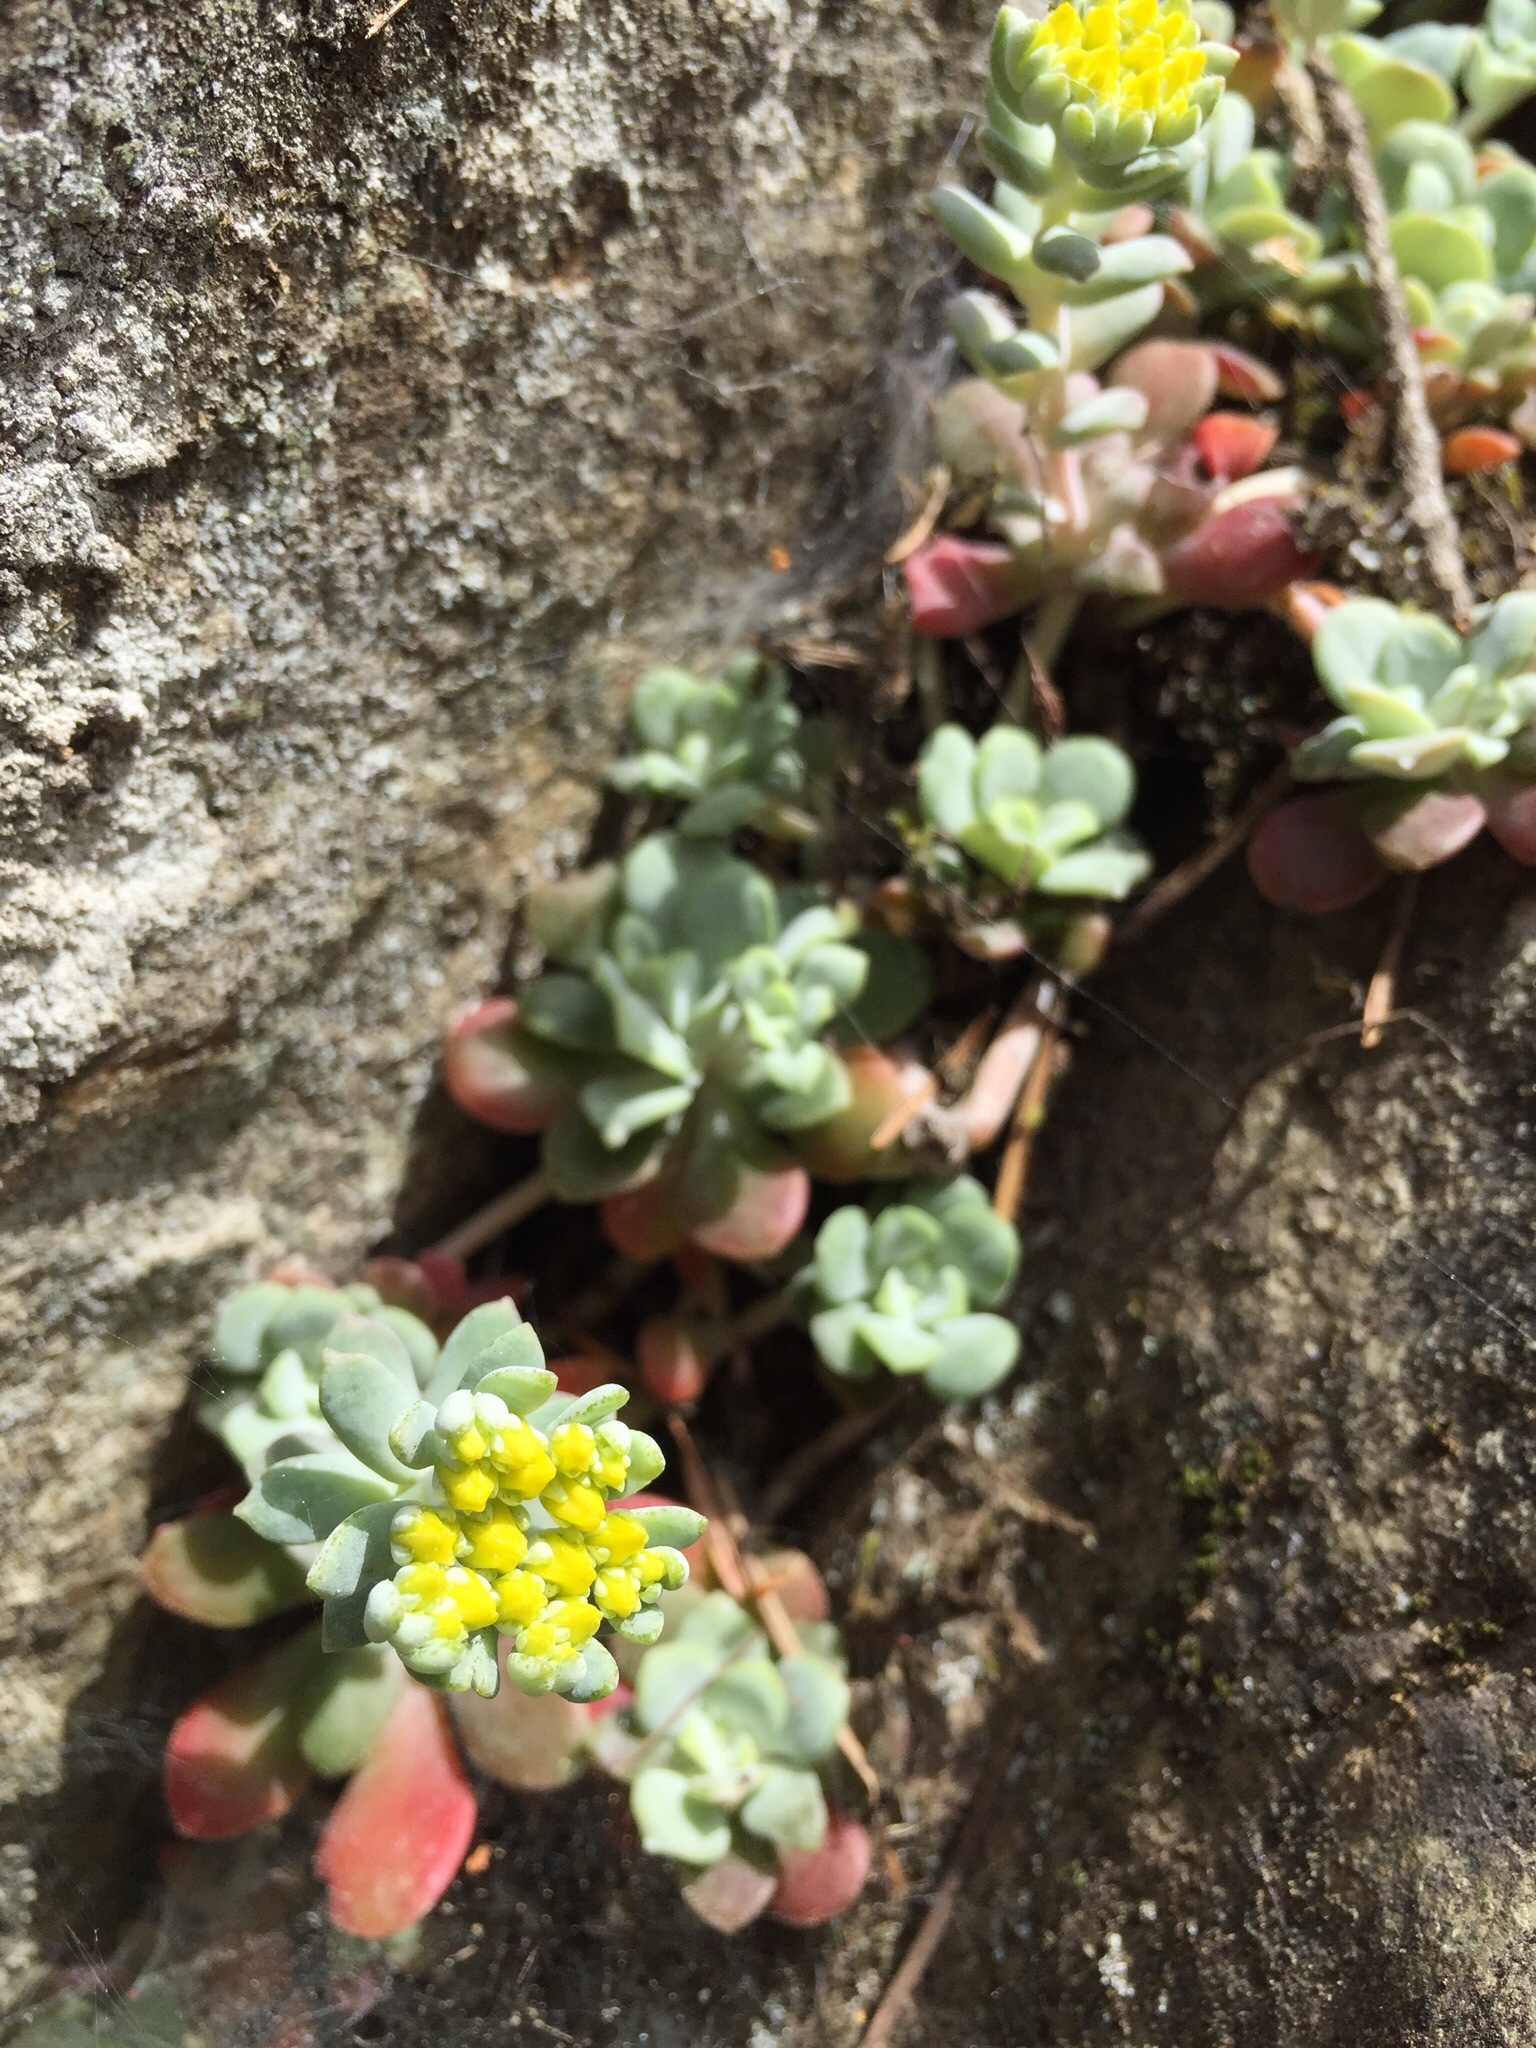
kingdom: Plantae
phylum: Tracheophyta
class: Magnoliopsida
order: Saxifragales
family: Crassulaceae
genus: Sedum
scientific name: Sedum spathulifolium
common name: Colorado stonecrop
